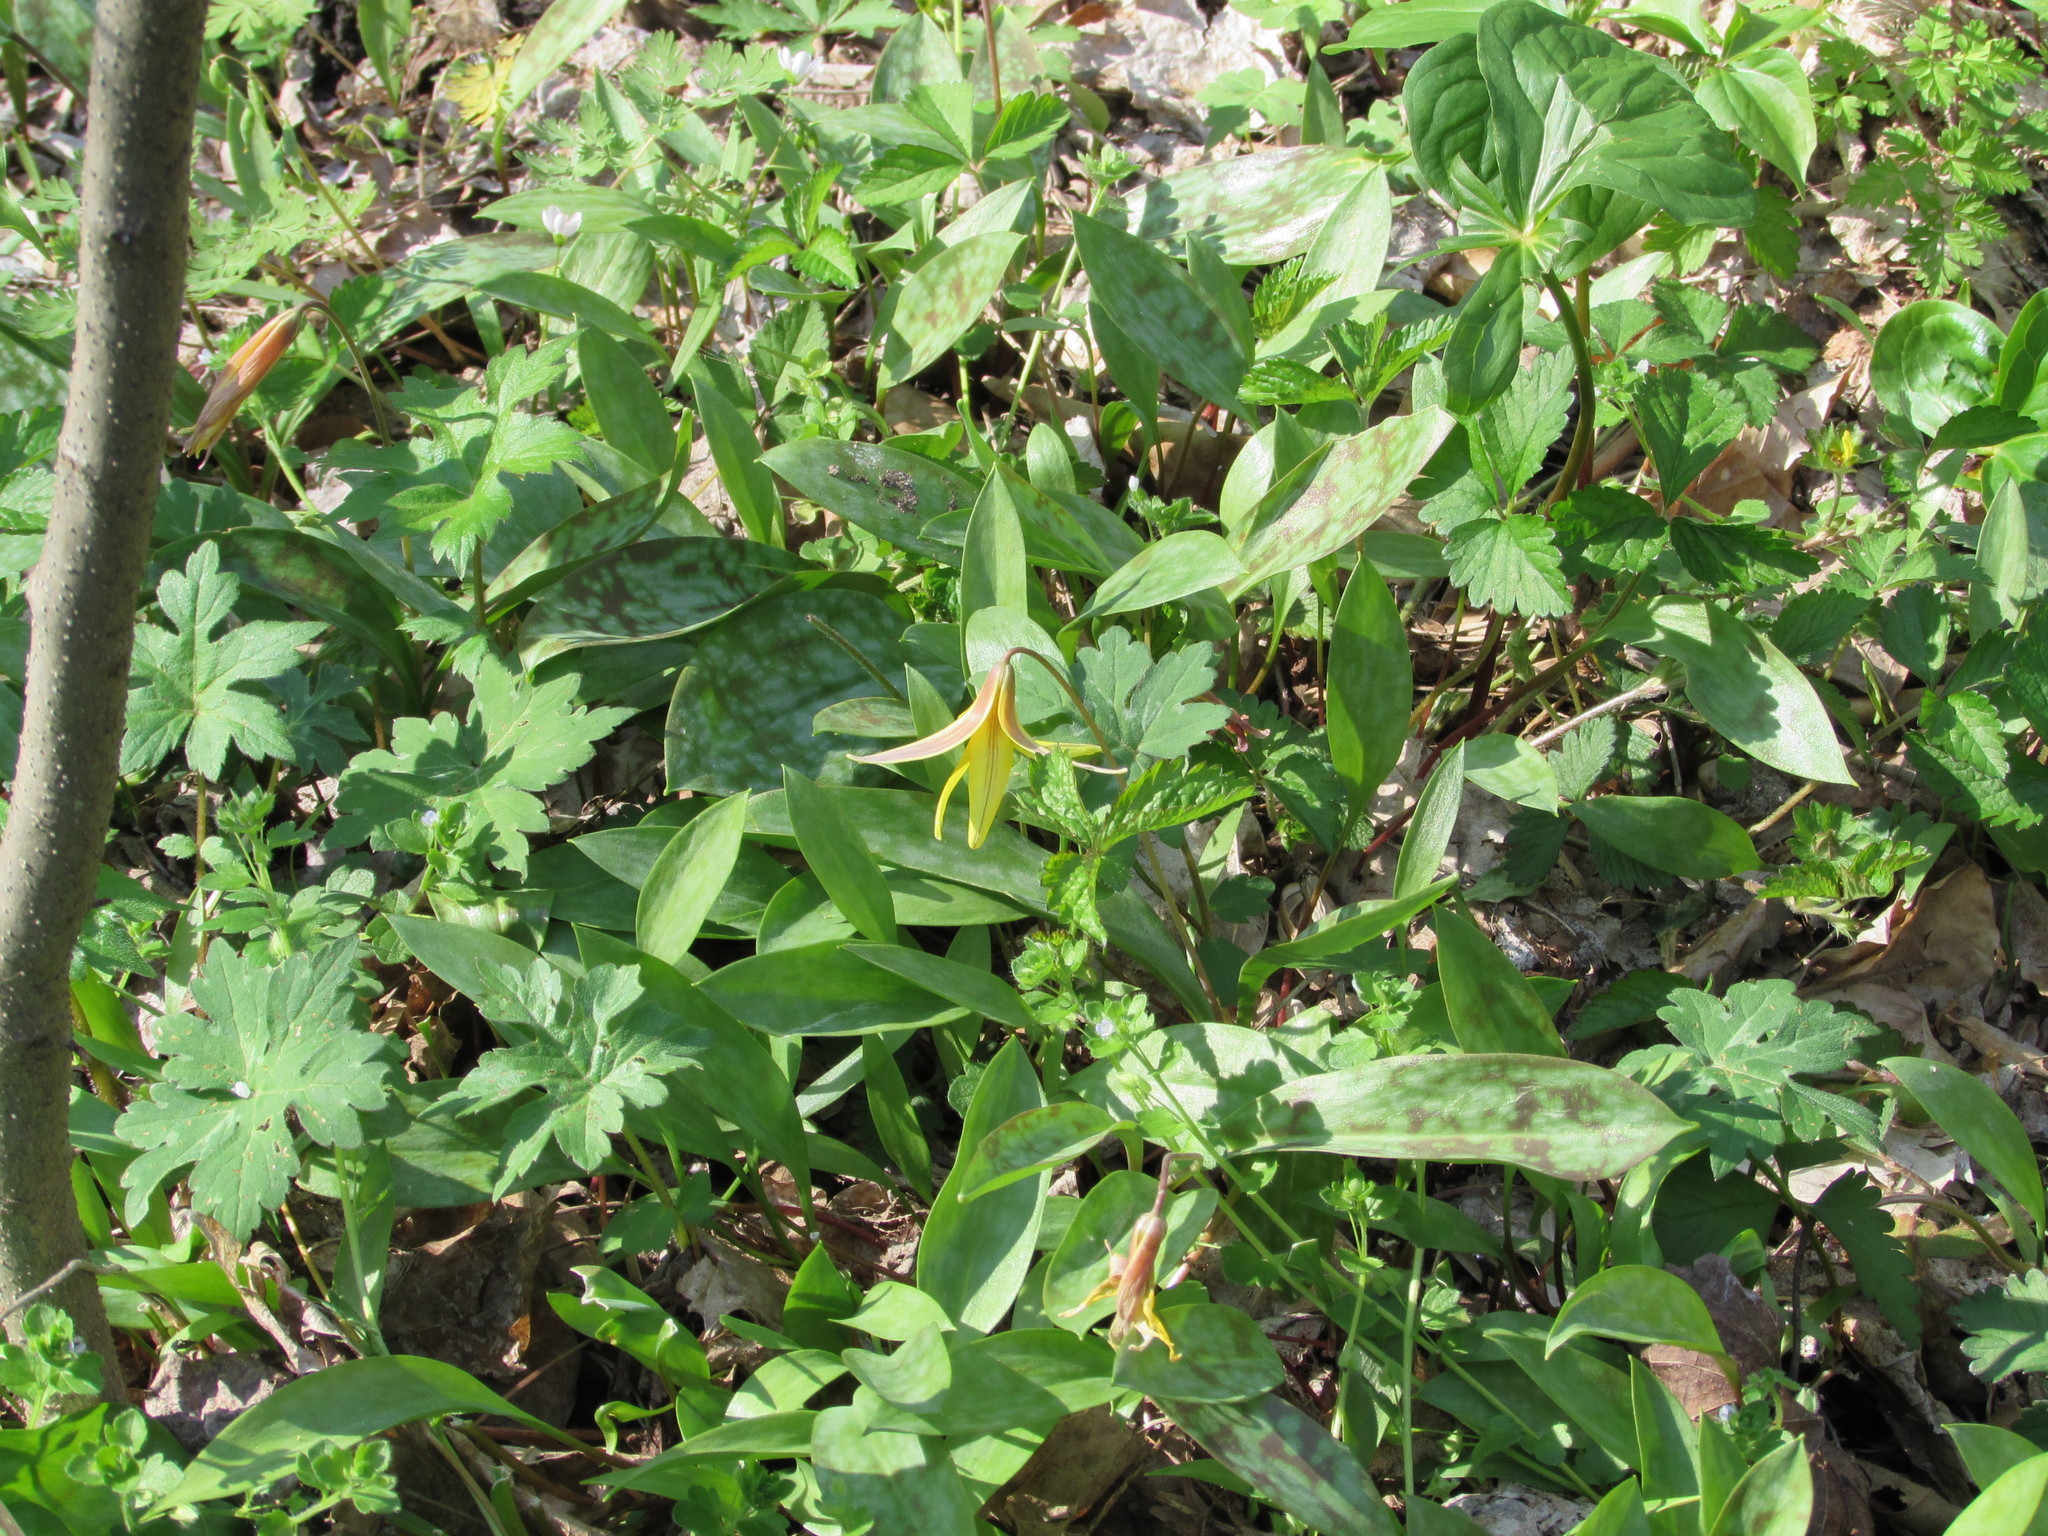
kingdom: Plantae
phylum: Tracheophyta
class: Liliopsida
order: Liliales
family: Liliaceae
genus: Erythronium
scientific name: Erythronium americanum
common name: Yellow adder's-tongue
